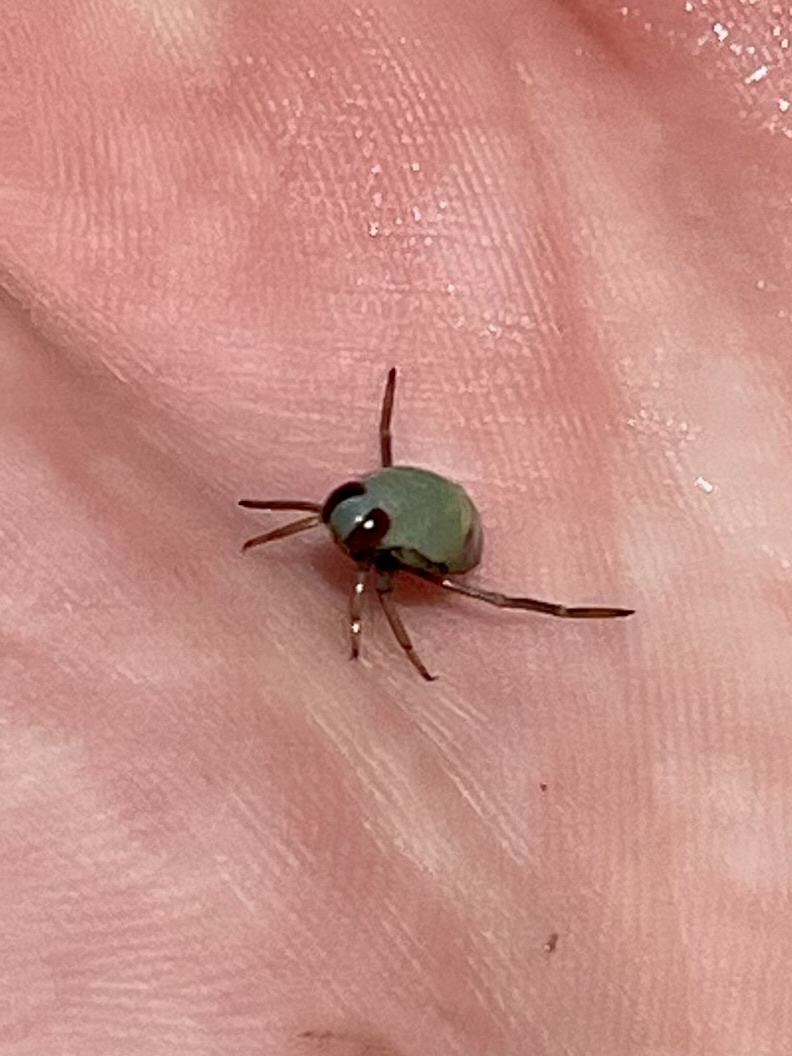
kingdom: Animalia
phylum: Arthropoda
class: Insecta
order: Hemiptera
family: Notonectidae
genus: Notonecta
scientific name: Notonecta
